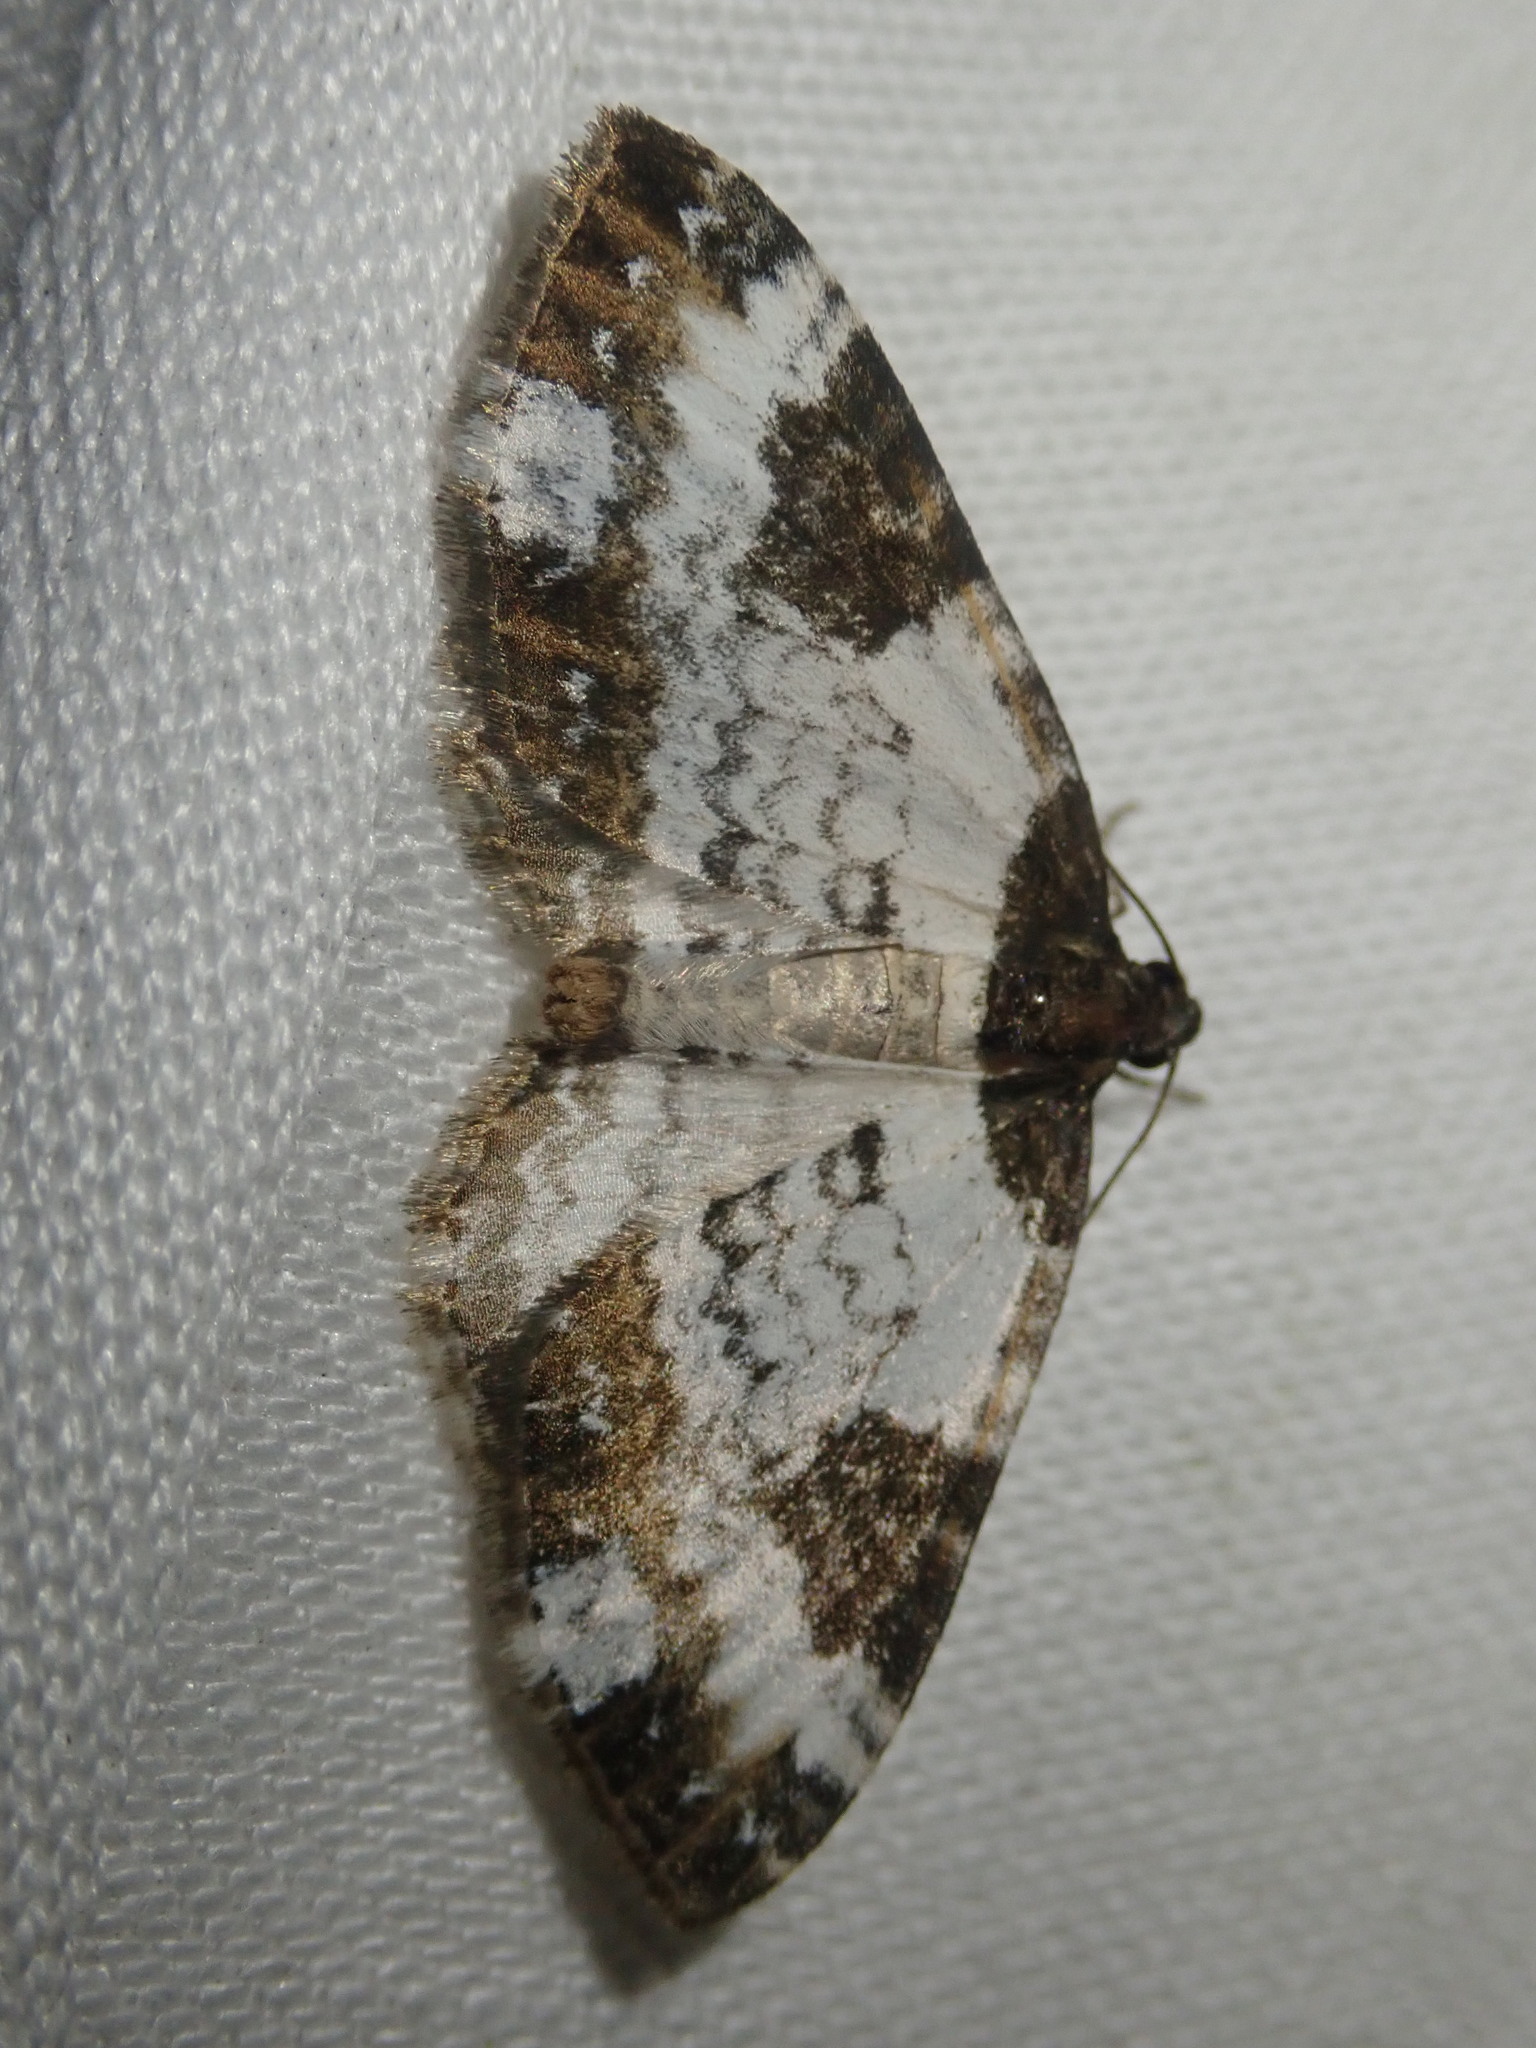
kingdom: Animalia
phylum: Arthropoda
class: Insecta
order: Lepidoptera
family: Geometridae
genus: Melanthia
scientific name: Melanthia procellata
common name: Pretty chalk carpet
